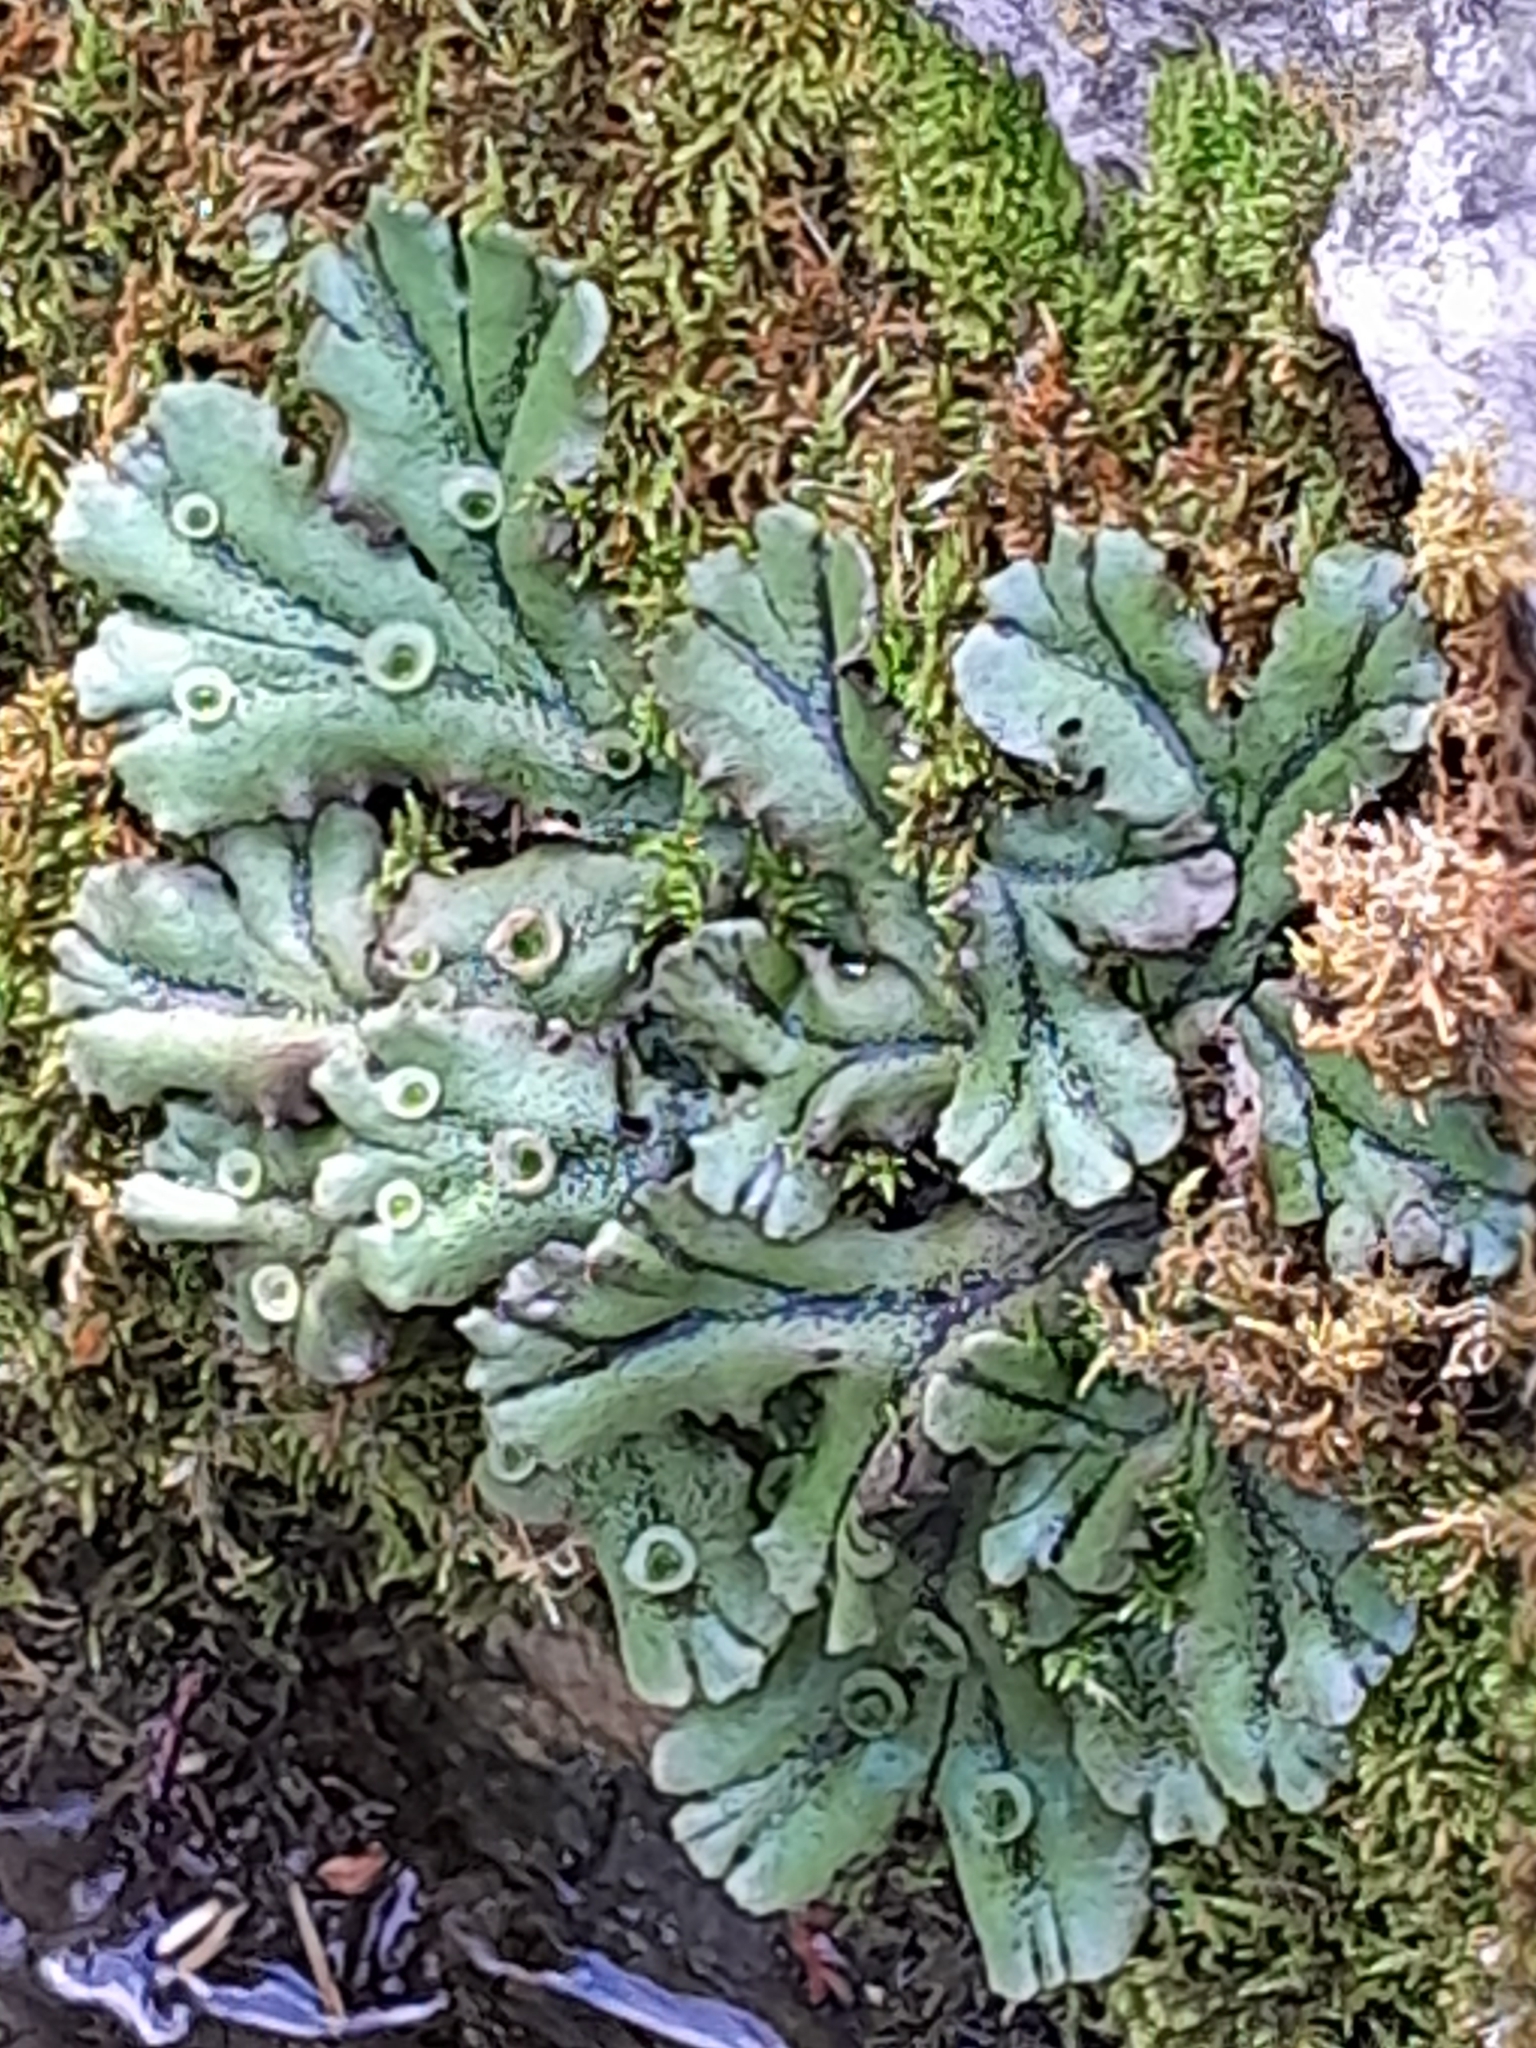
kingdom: Plantae
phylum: Marchantiophyta
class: Marchantiopsida
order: Marchantiales
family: Marchantiaceae
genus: Marchantia
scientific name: Marchantia polymorpha
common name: Common liverwort
